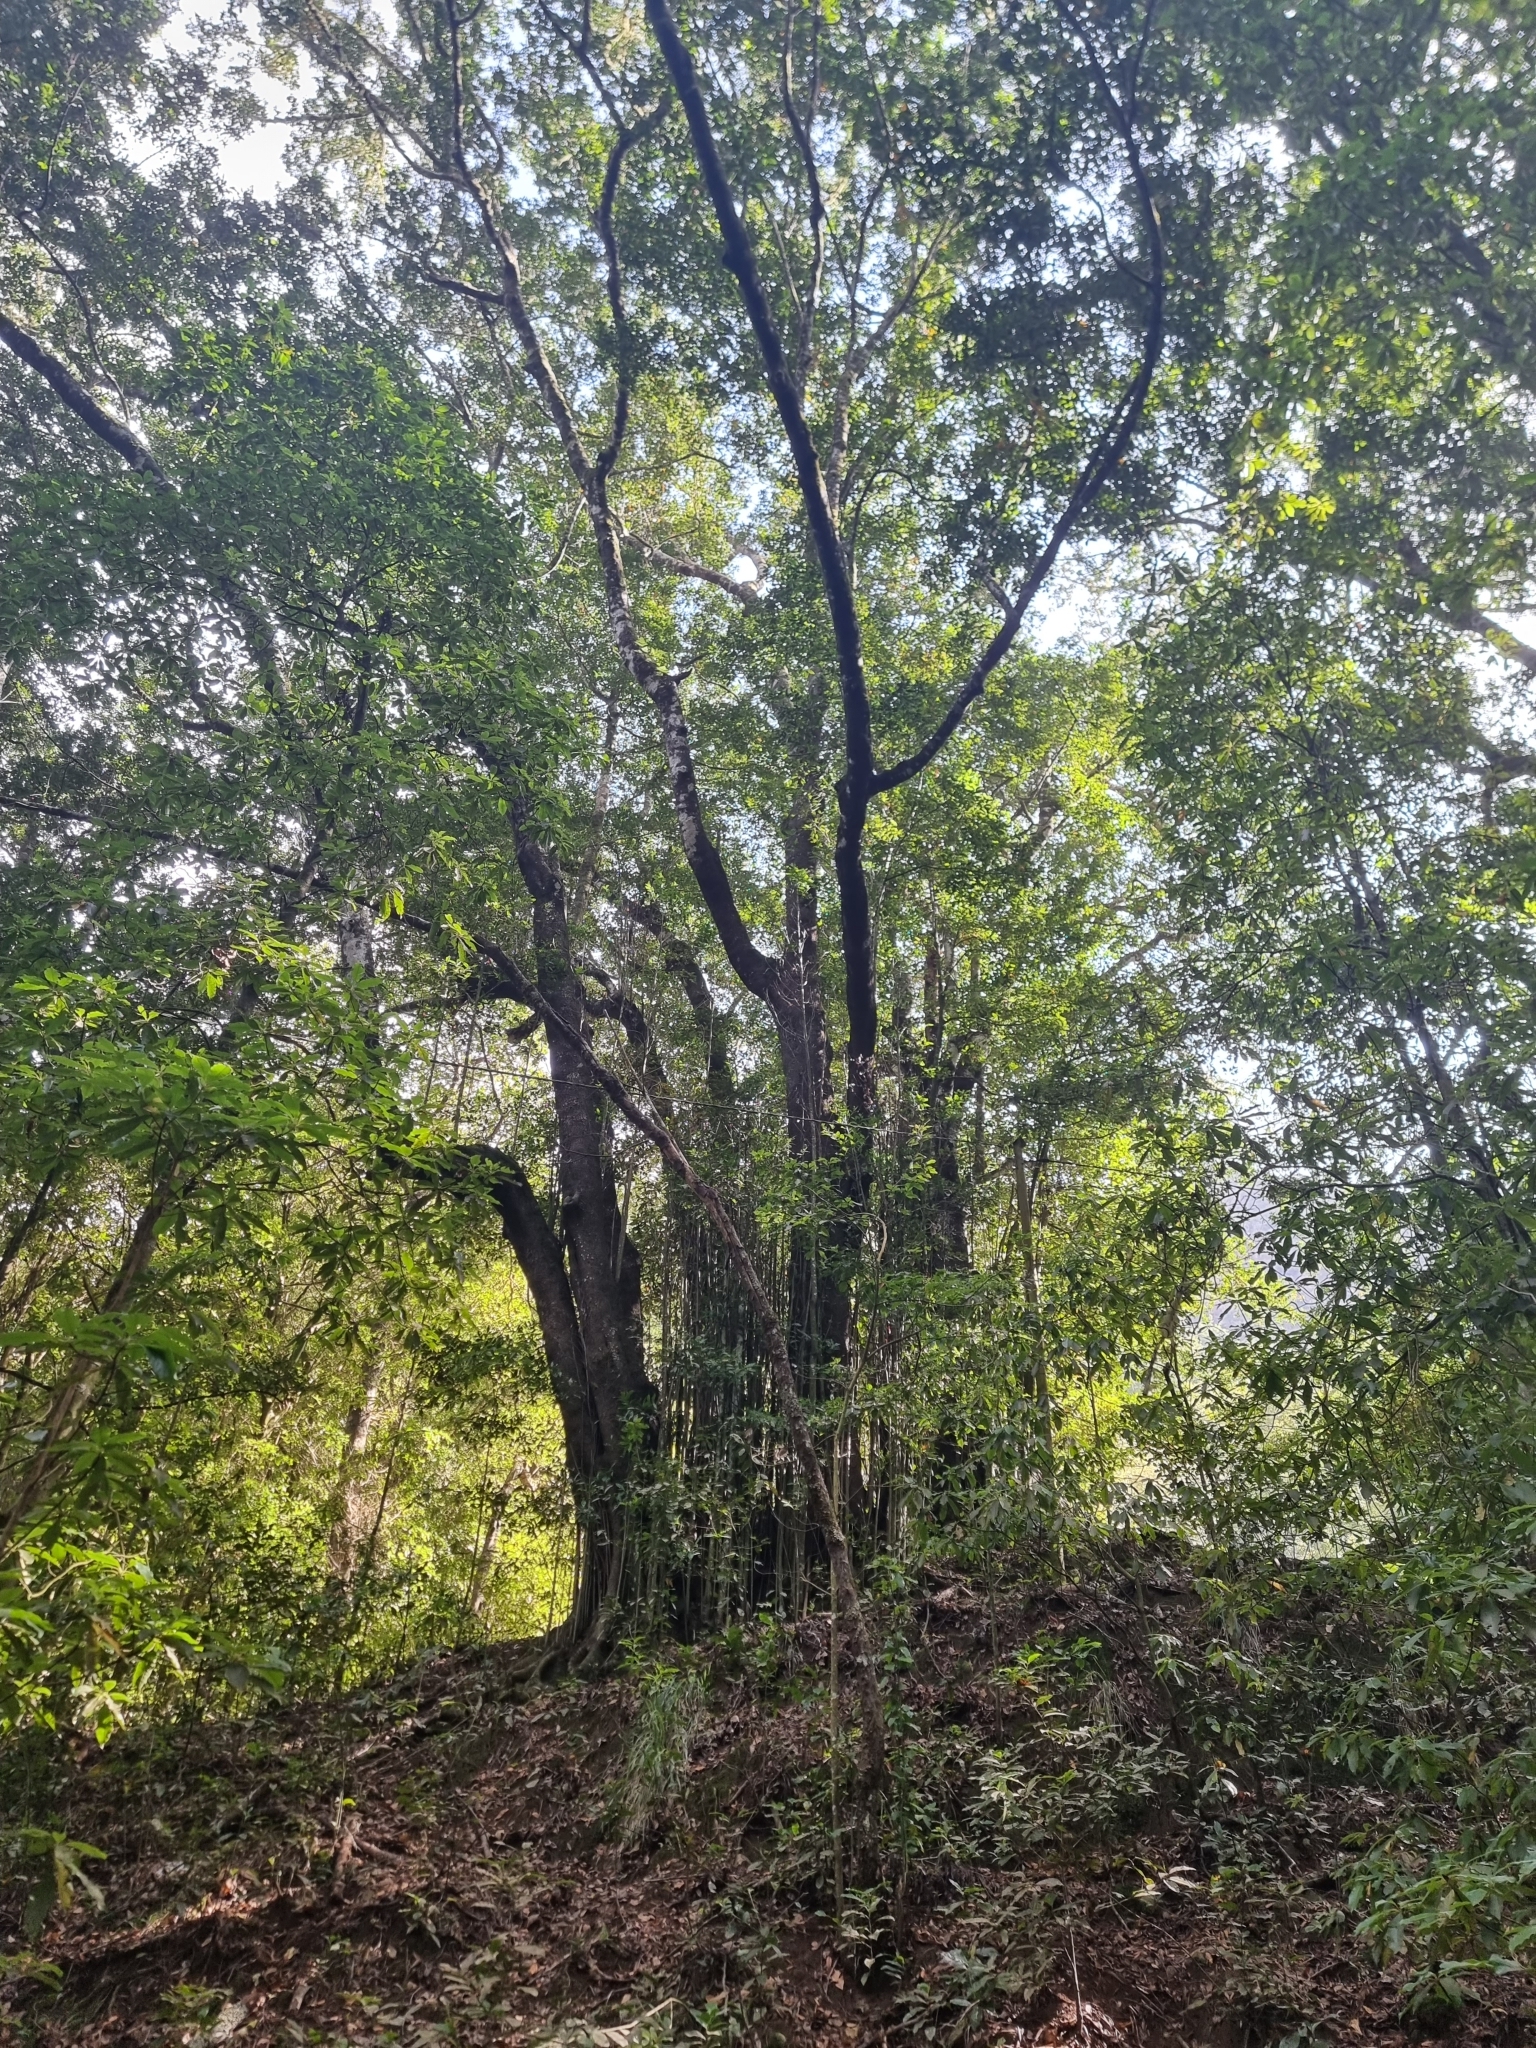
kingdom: Plantae
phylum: Tracheophyta
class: Magnoliopsida
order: Laurales
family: Lauraceae
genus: Mespilodaphne
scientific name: Mespilodaphne foetens
